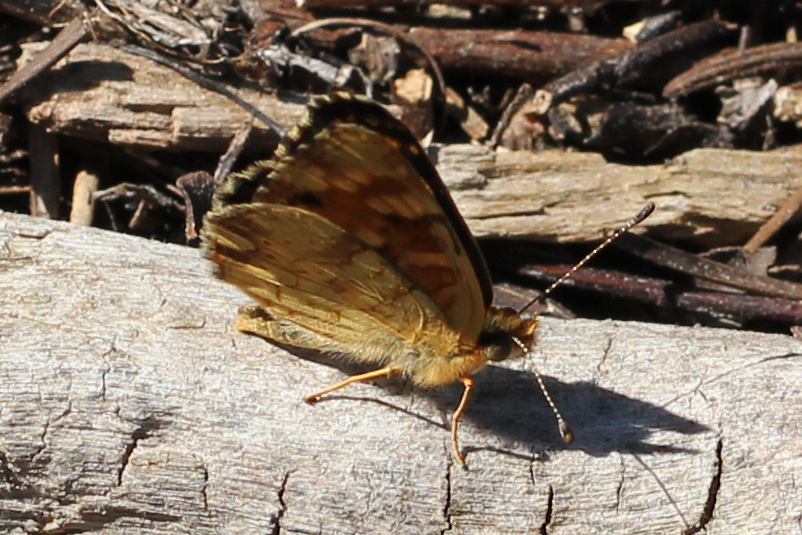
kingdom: Animalia
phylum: Arthropoda
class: Insecta
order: Lepidoptera
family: Nymphalidae
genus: Phyciodes
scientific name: Phyciodes tharos
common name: Pearl crescent
